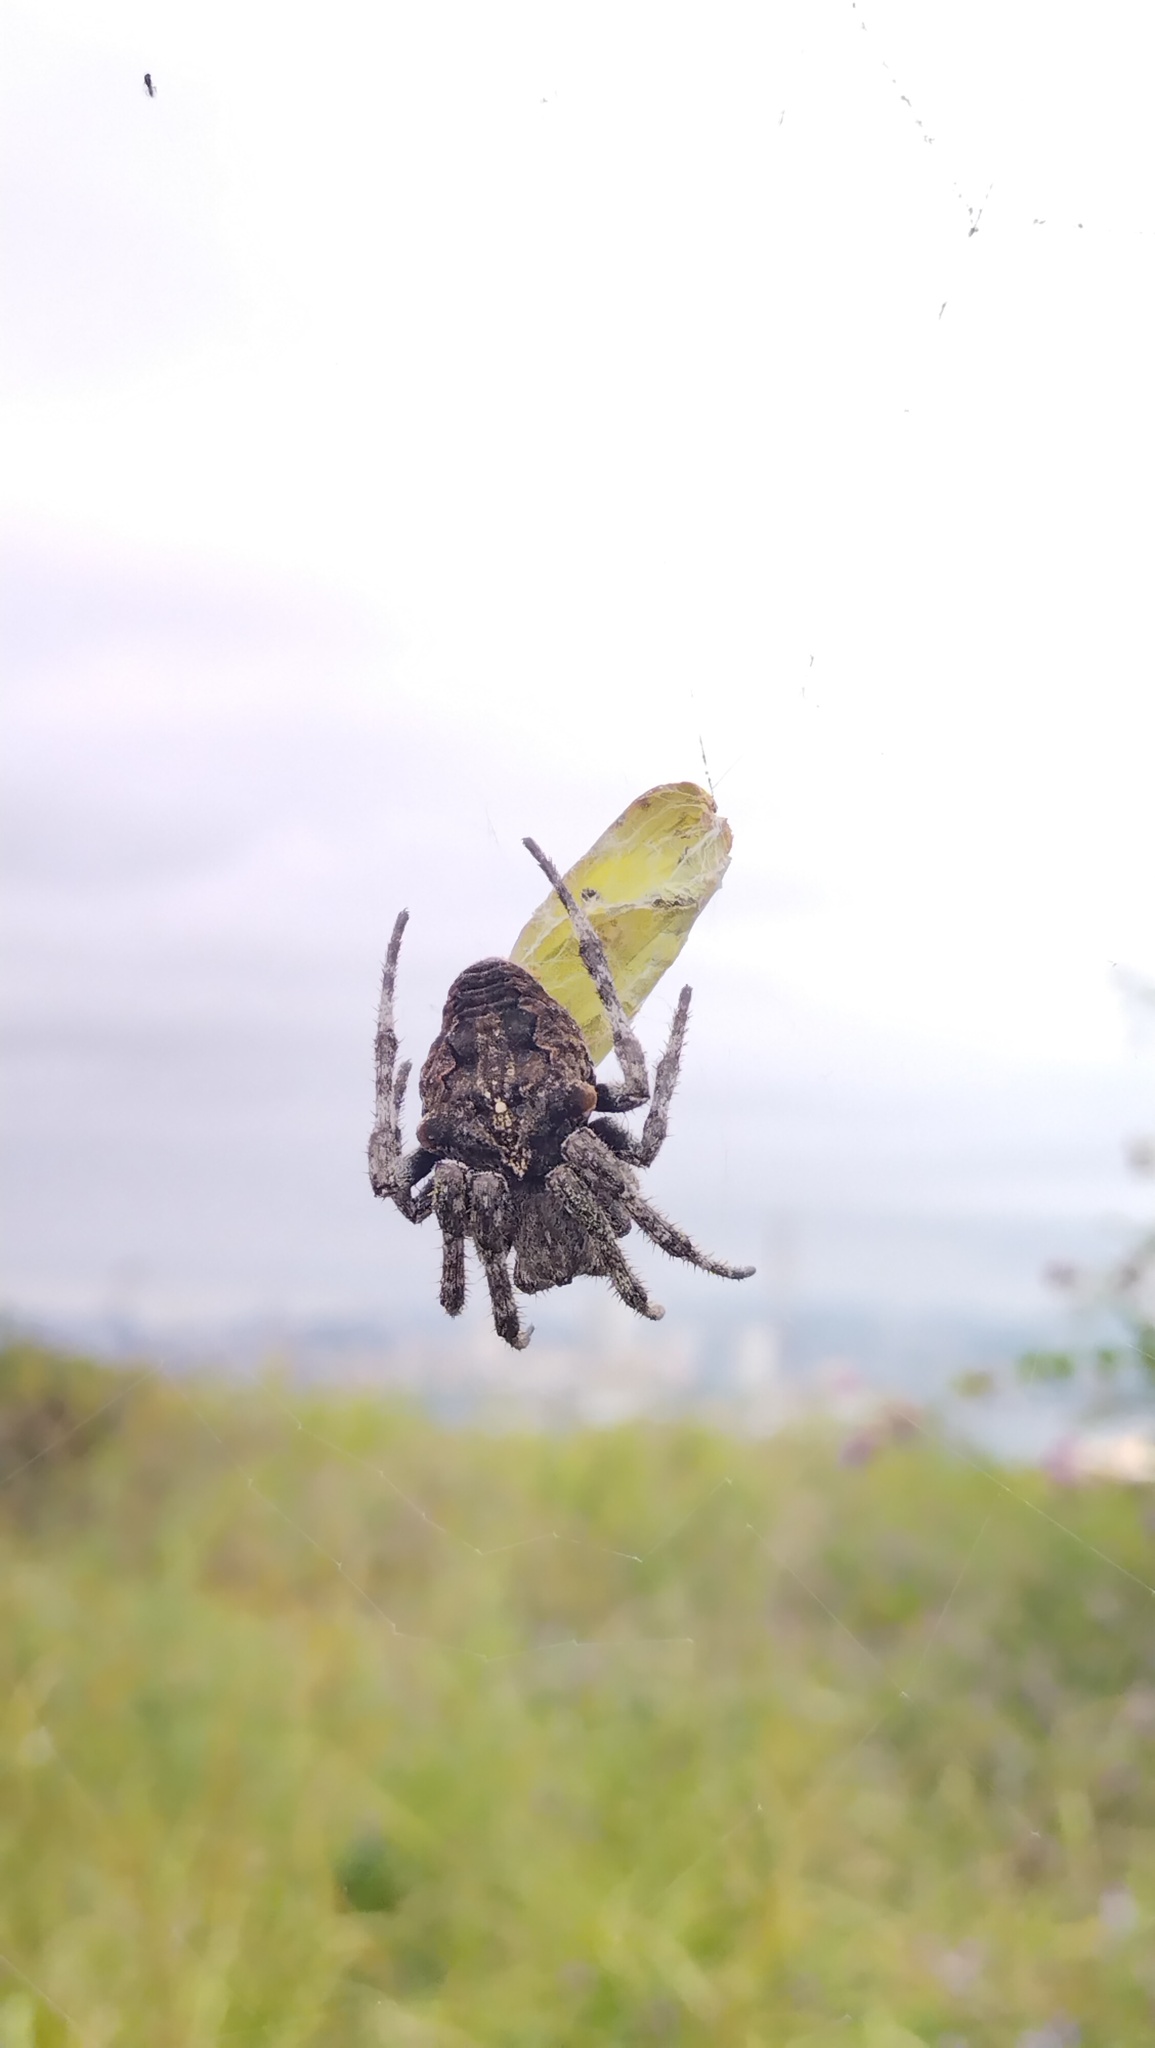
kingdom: Animalia
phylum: Arthropoda
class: Arachnida
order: Araneae
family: Araneidae
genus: Araneus
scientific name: Araneus angulatus
